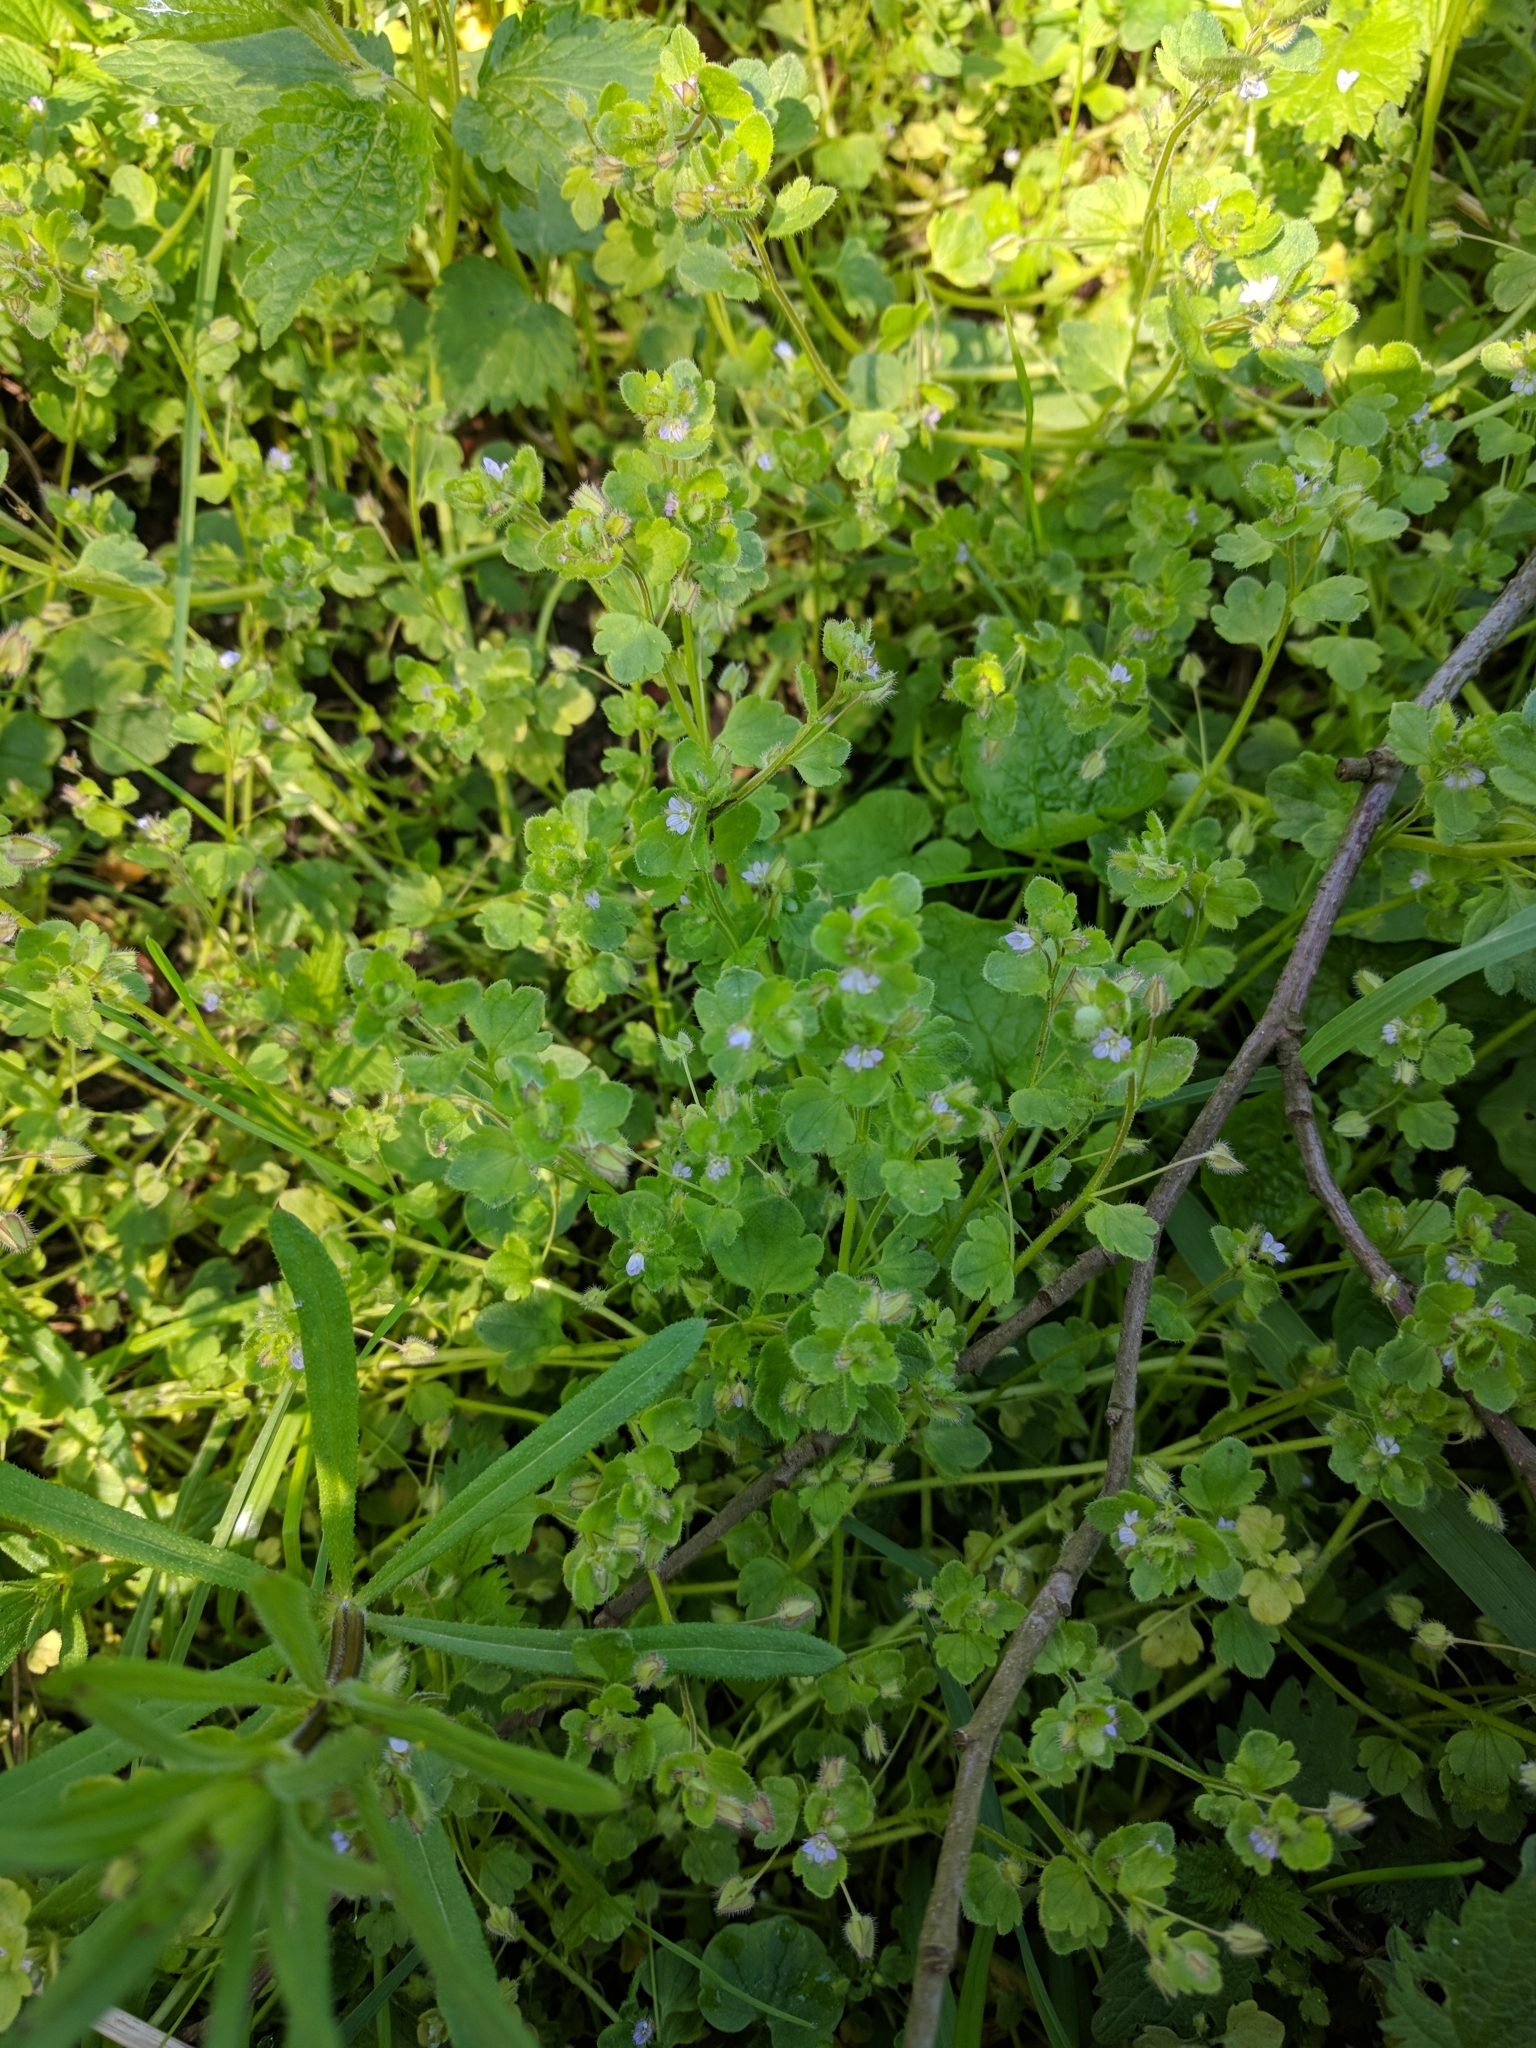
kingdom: Plantae
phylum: Tracheophyta
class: Magnoliopsida
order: Lamiales
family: Plantaginaceae
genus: Veronica
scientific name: Veronica sublobata
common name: False ivy-leaved speedwell
